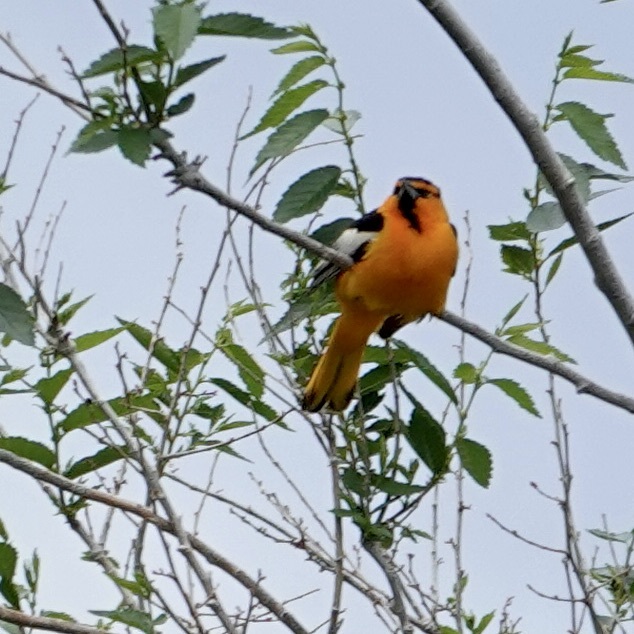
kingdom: Animalia
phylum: Chordata
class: Aves
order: Passeriformes
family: Icteridae
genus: Icterus
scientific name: Icterus bullockii
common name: Bullock's oriole
